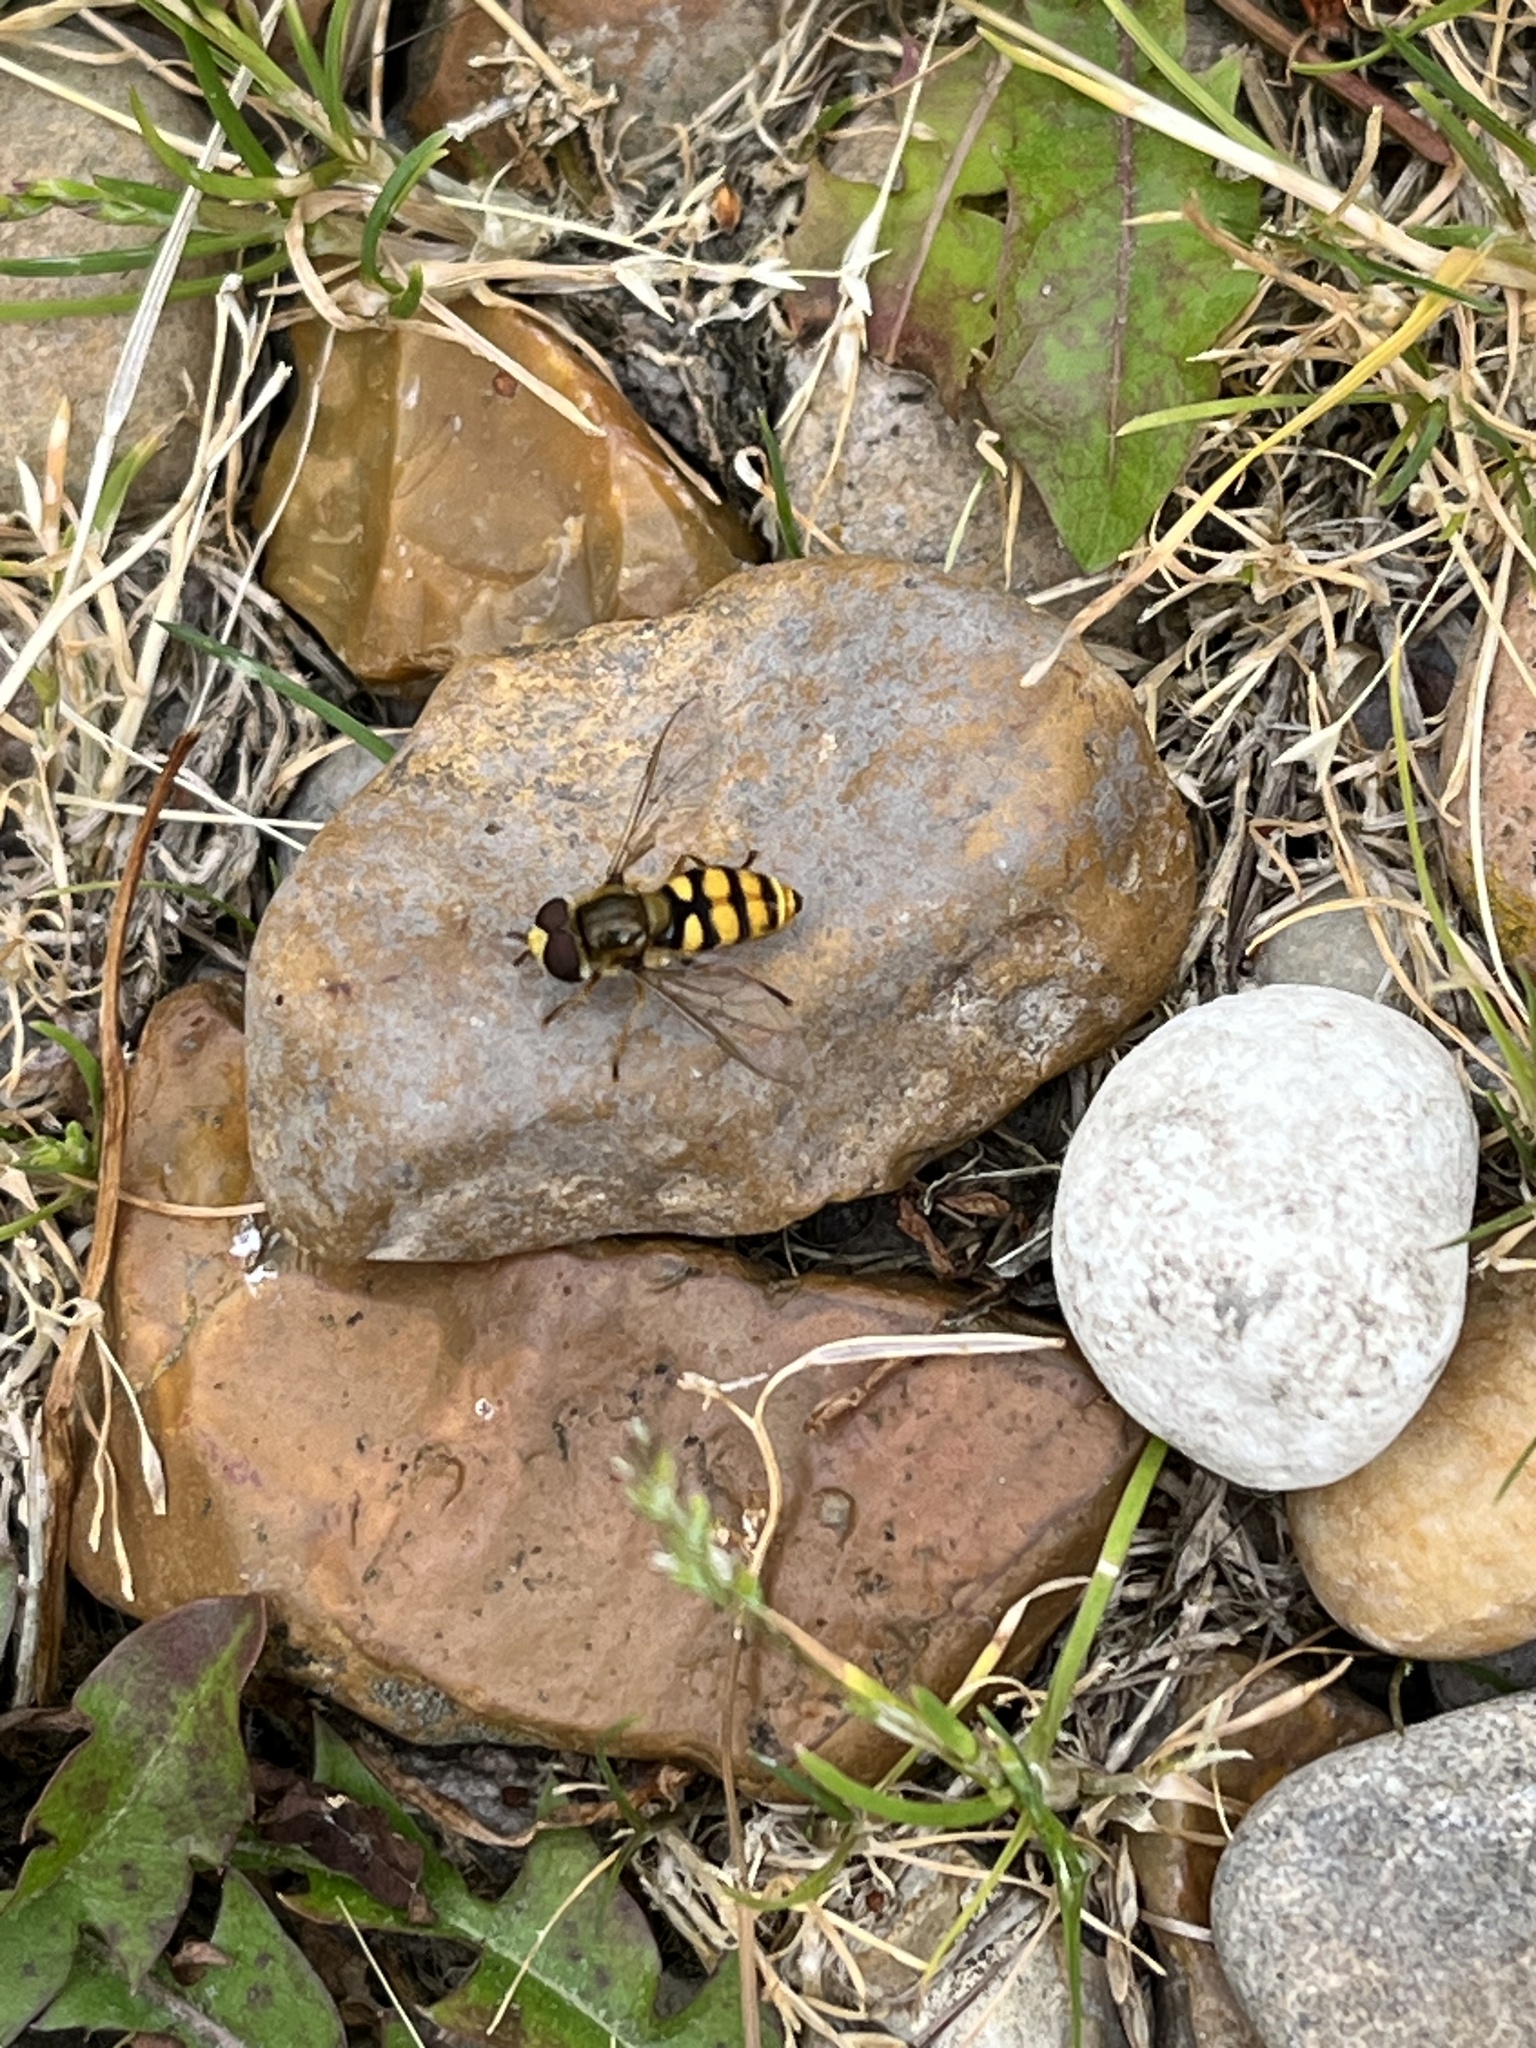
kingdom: Animalia
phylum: Arthropoda
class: Insecta
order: Diptera
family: Syrphidae
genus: Eupeodes
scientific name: Eupeodes corollae
